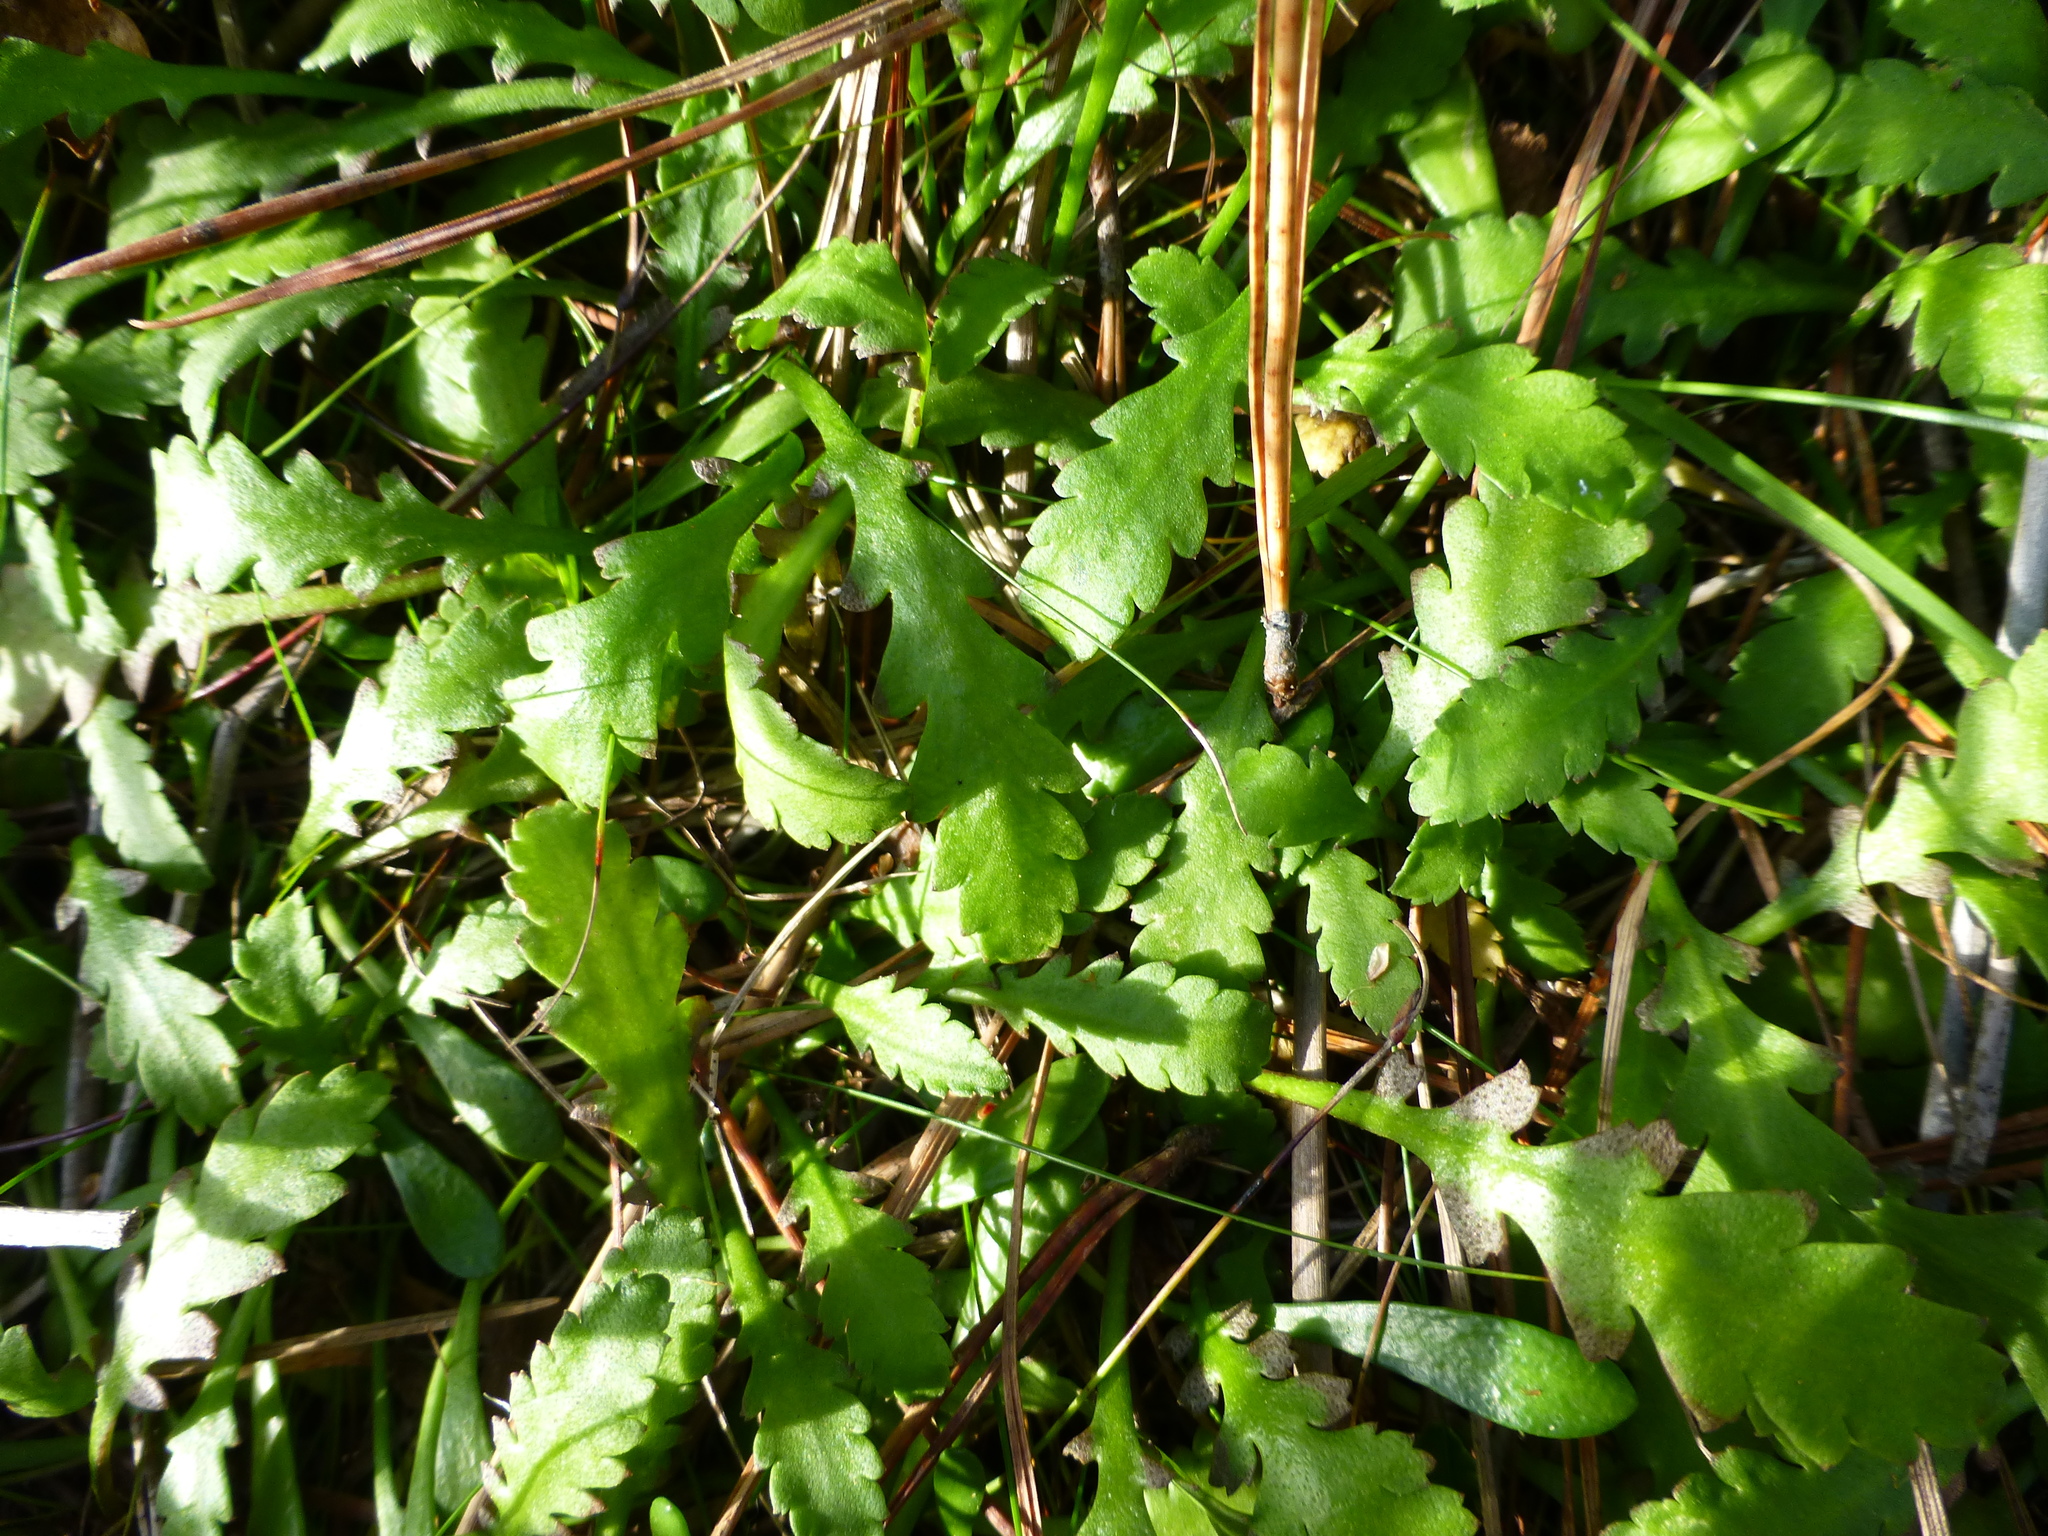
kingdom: Plantae
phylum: Tracheophyta
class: Magnoliopsida
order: Asterales
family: Asteraceae
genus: Leptinella
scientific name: Leptinella dioica
